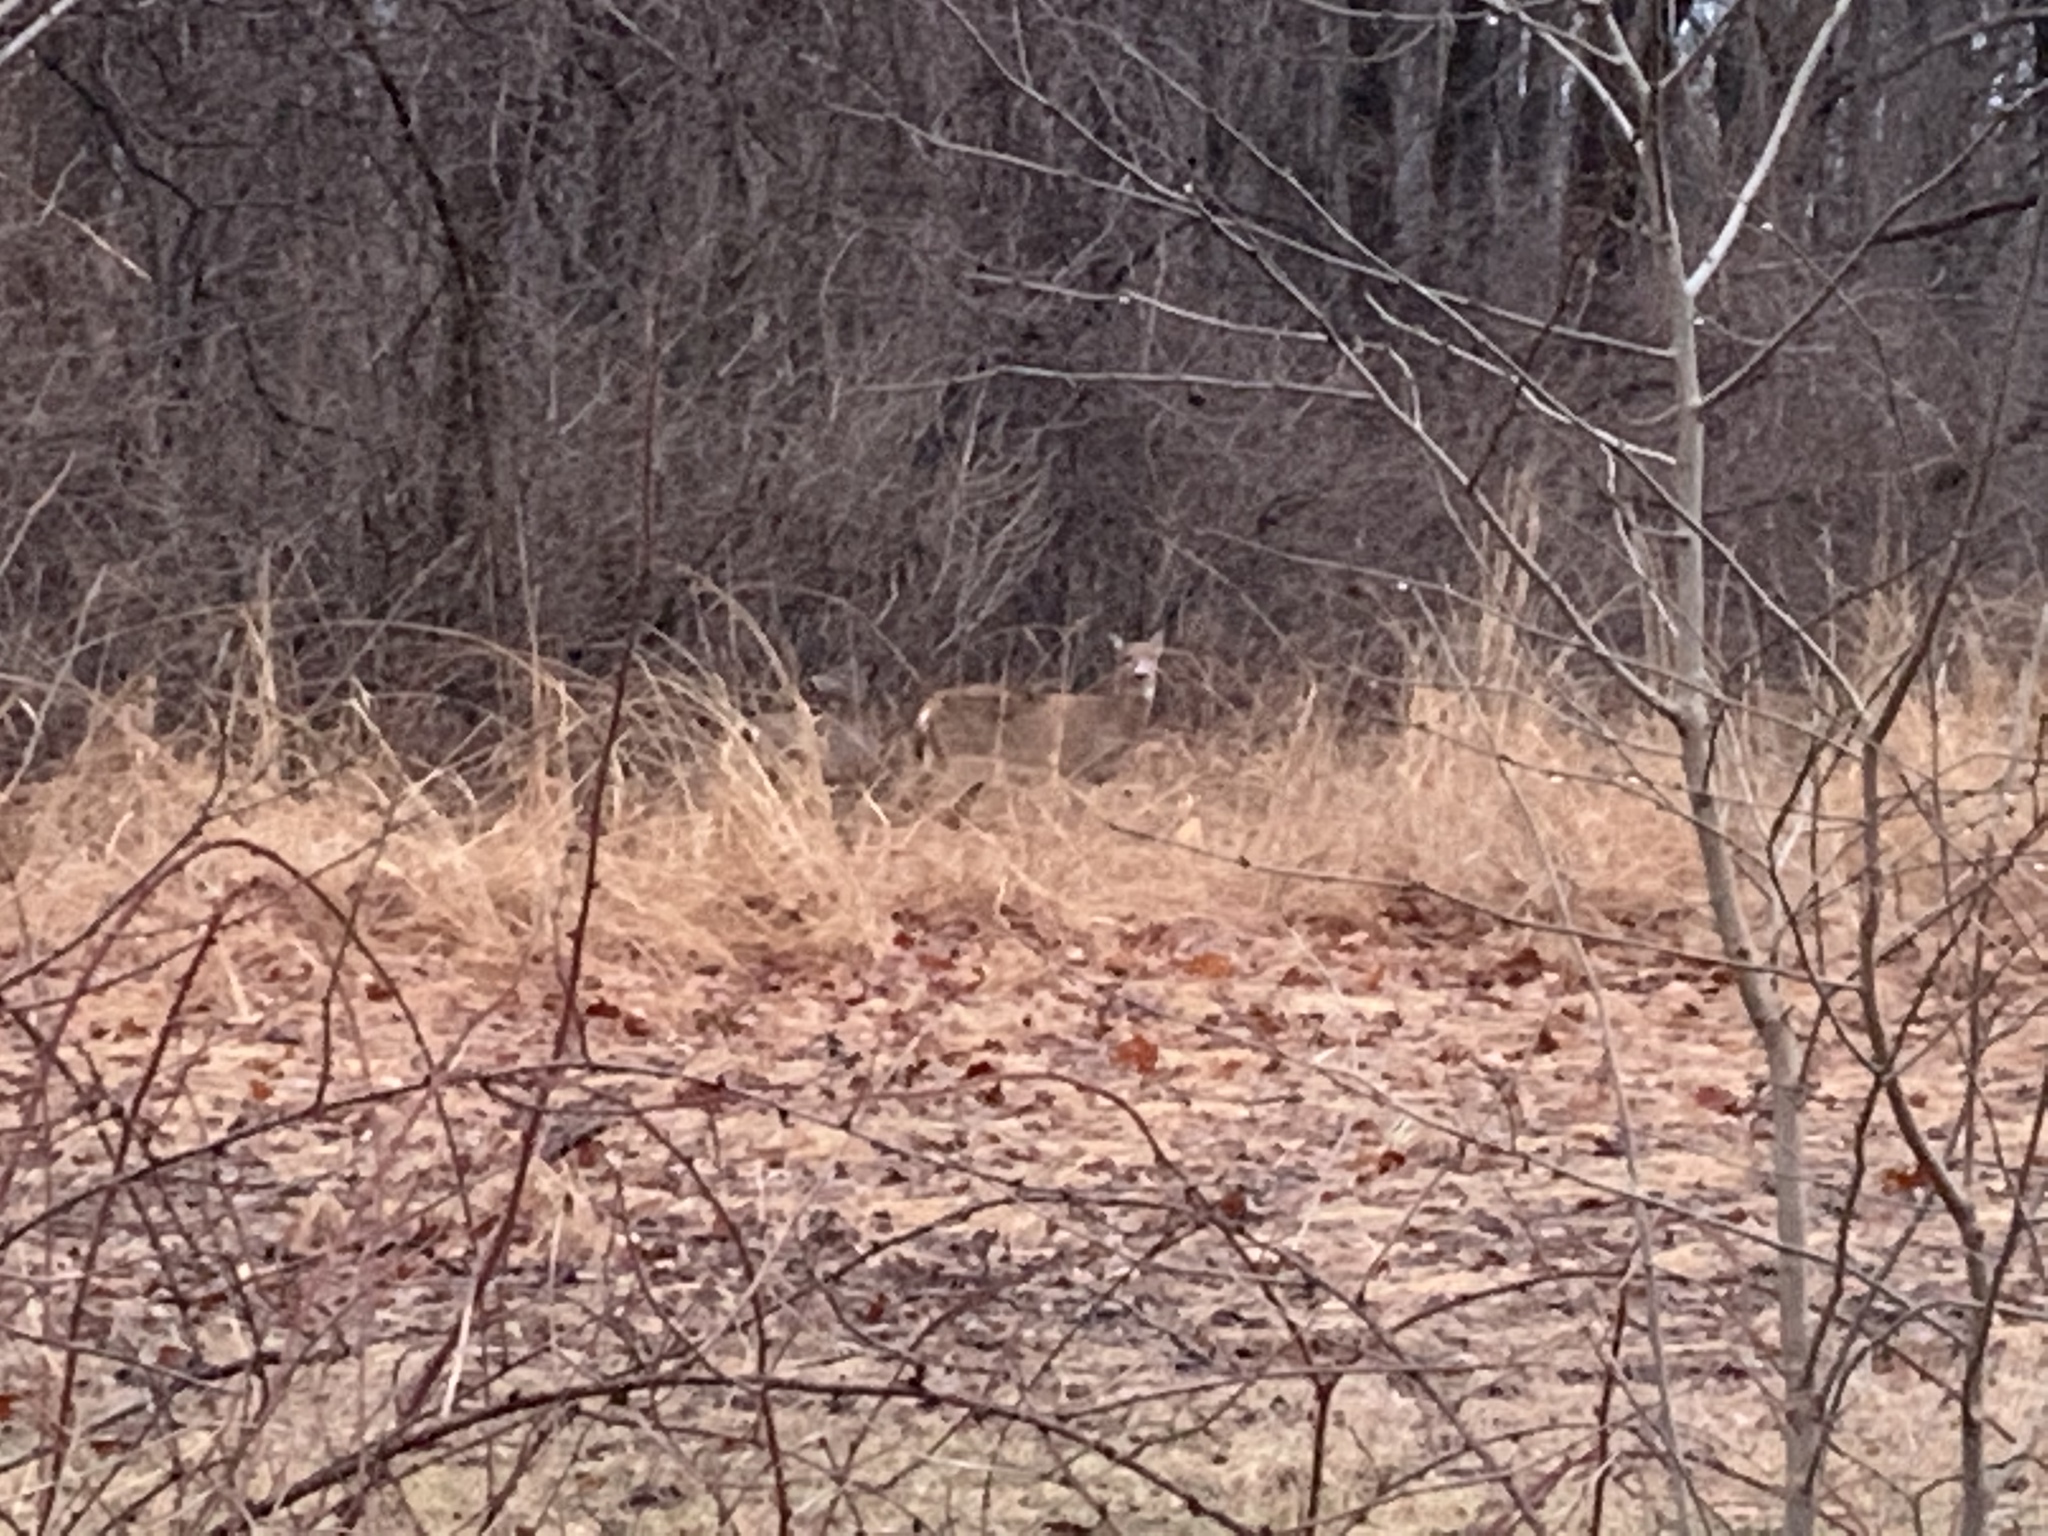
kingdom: Animalia
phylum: Chordata
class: Mammalia
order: Artiodactyla
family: Cervidae
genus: Odocoileus
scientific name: Odocoileus virginianus
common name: White-tailed deer
